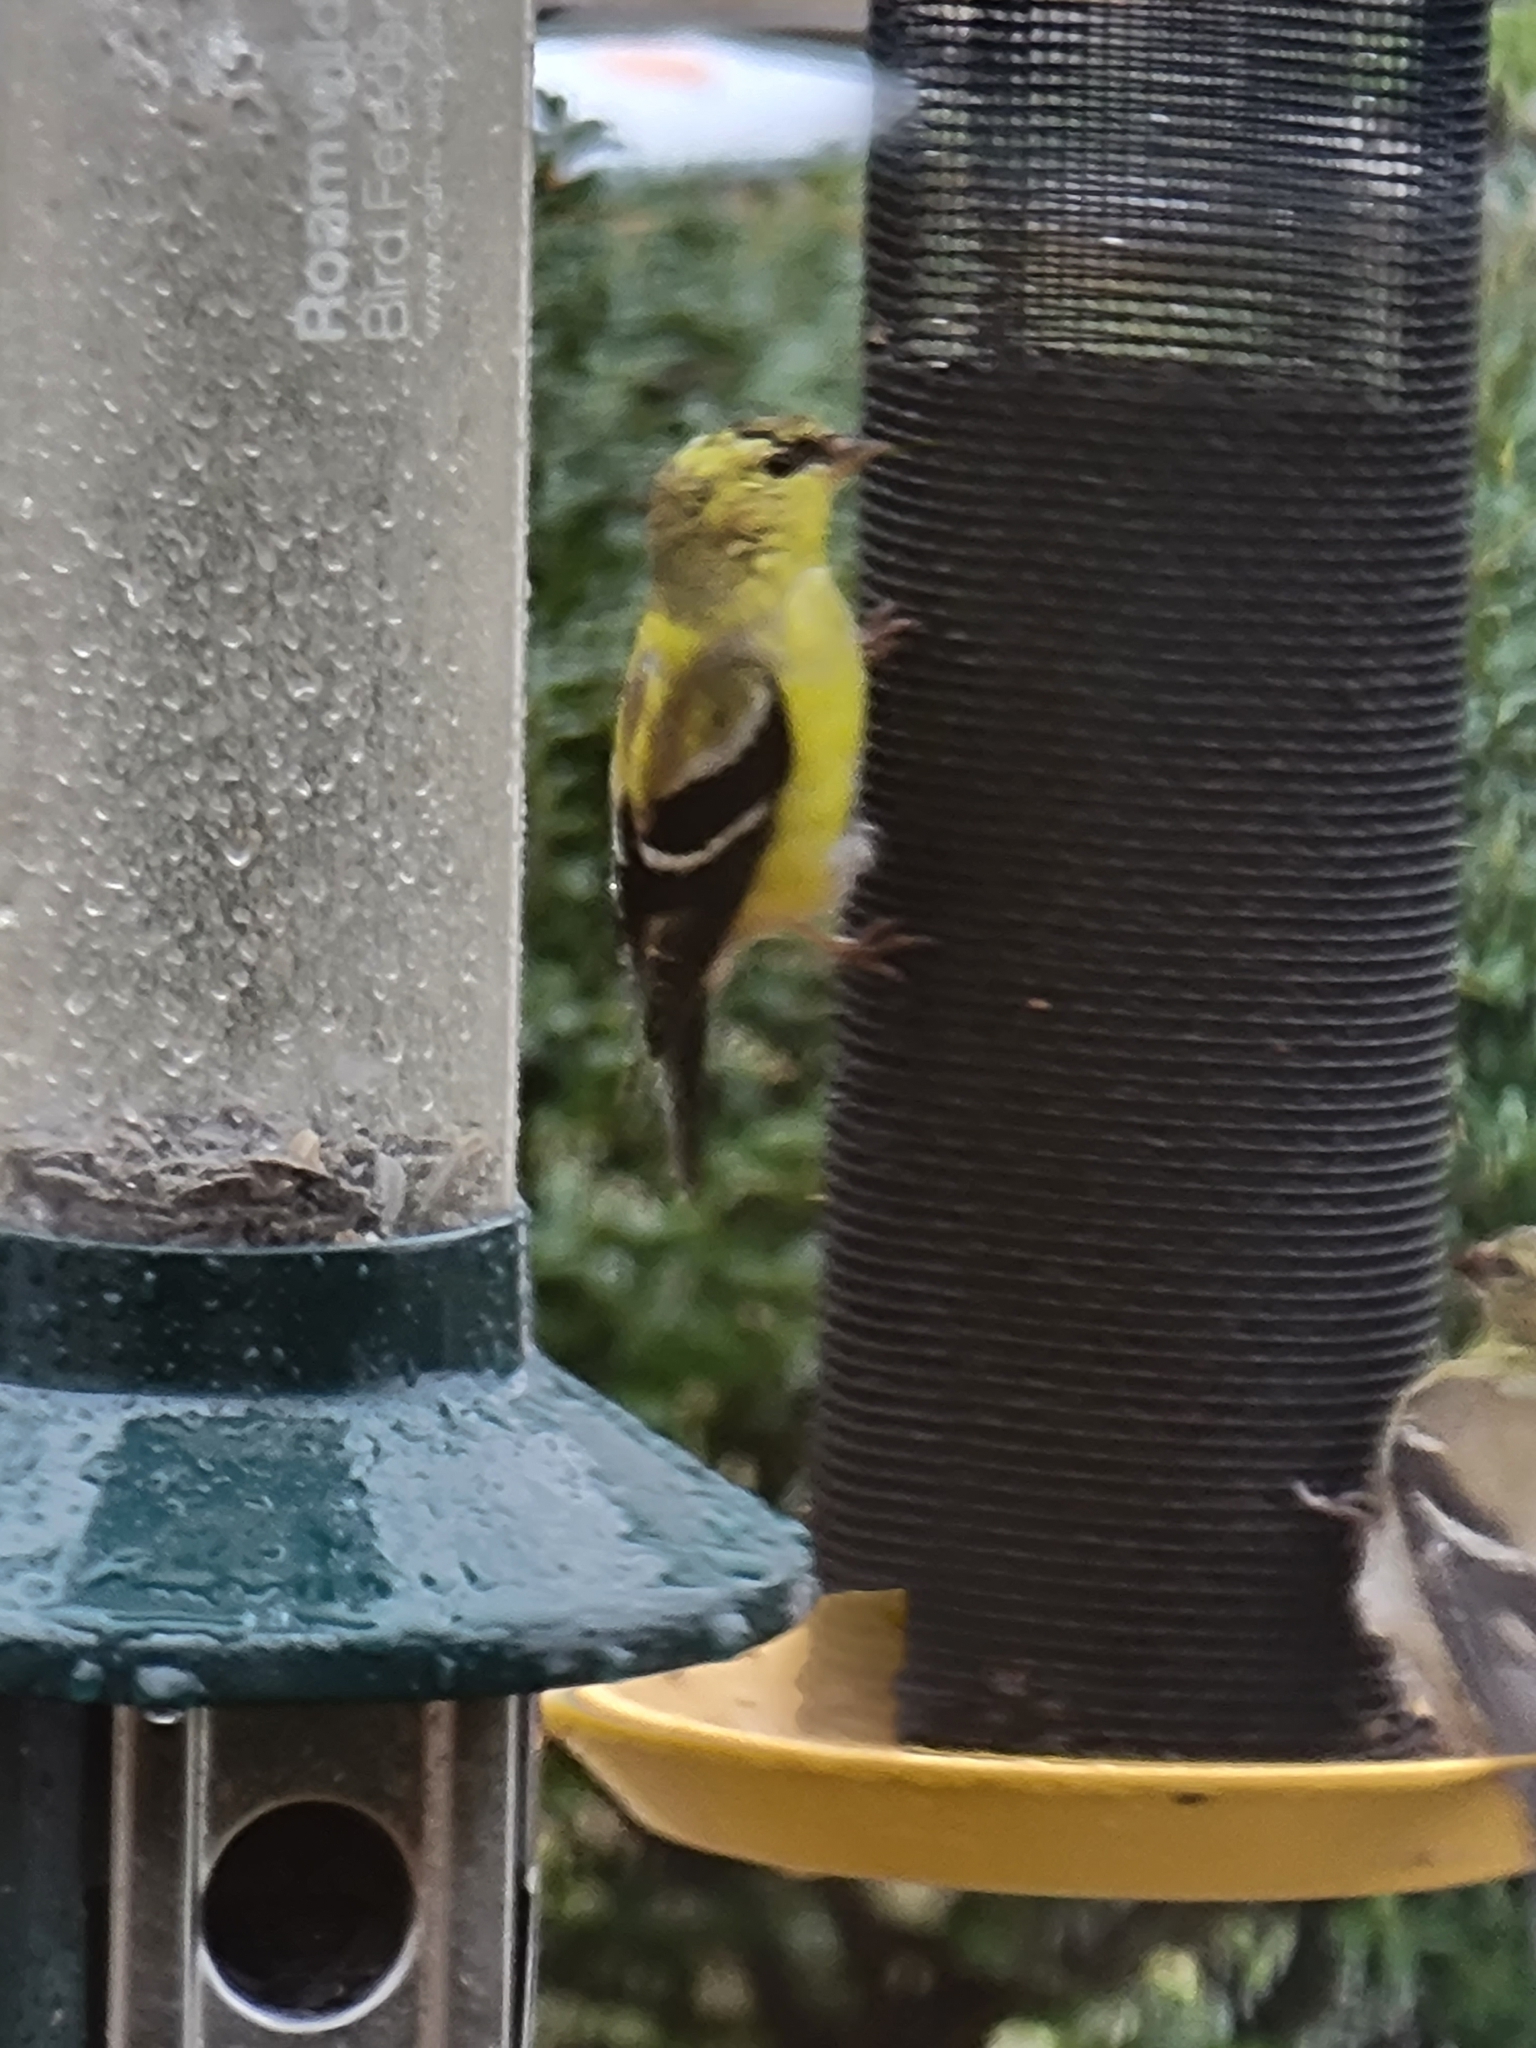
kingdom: Animalia
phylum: Chordata
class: Aves
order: Passeriformes
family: Fringillidae
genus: Spinus
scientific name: Spinus tristis
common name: American goldfinch
